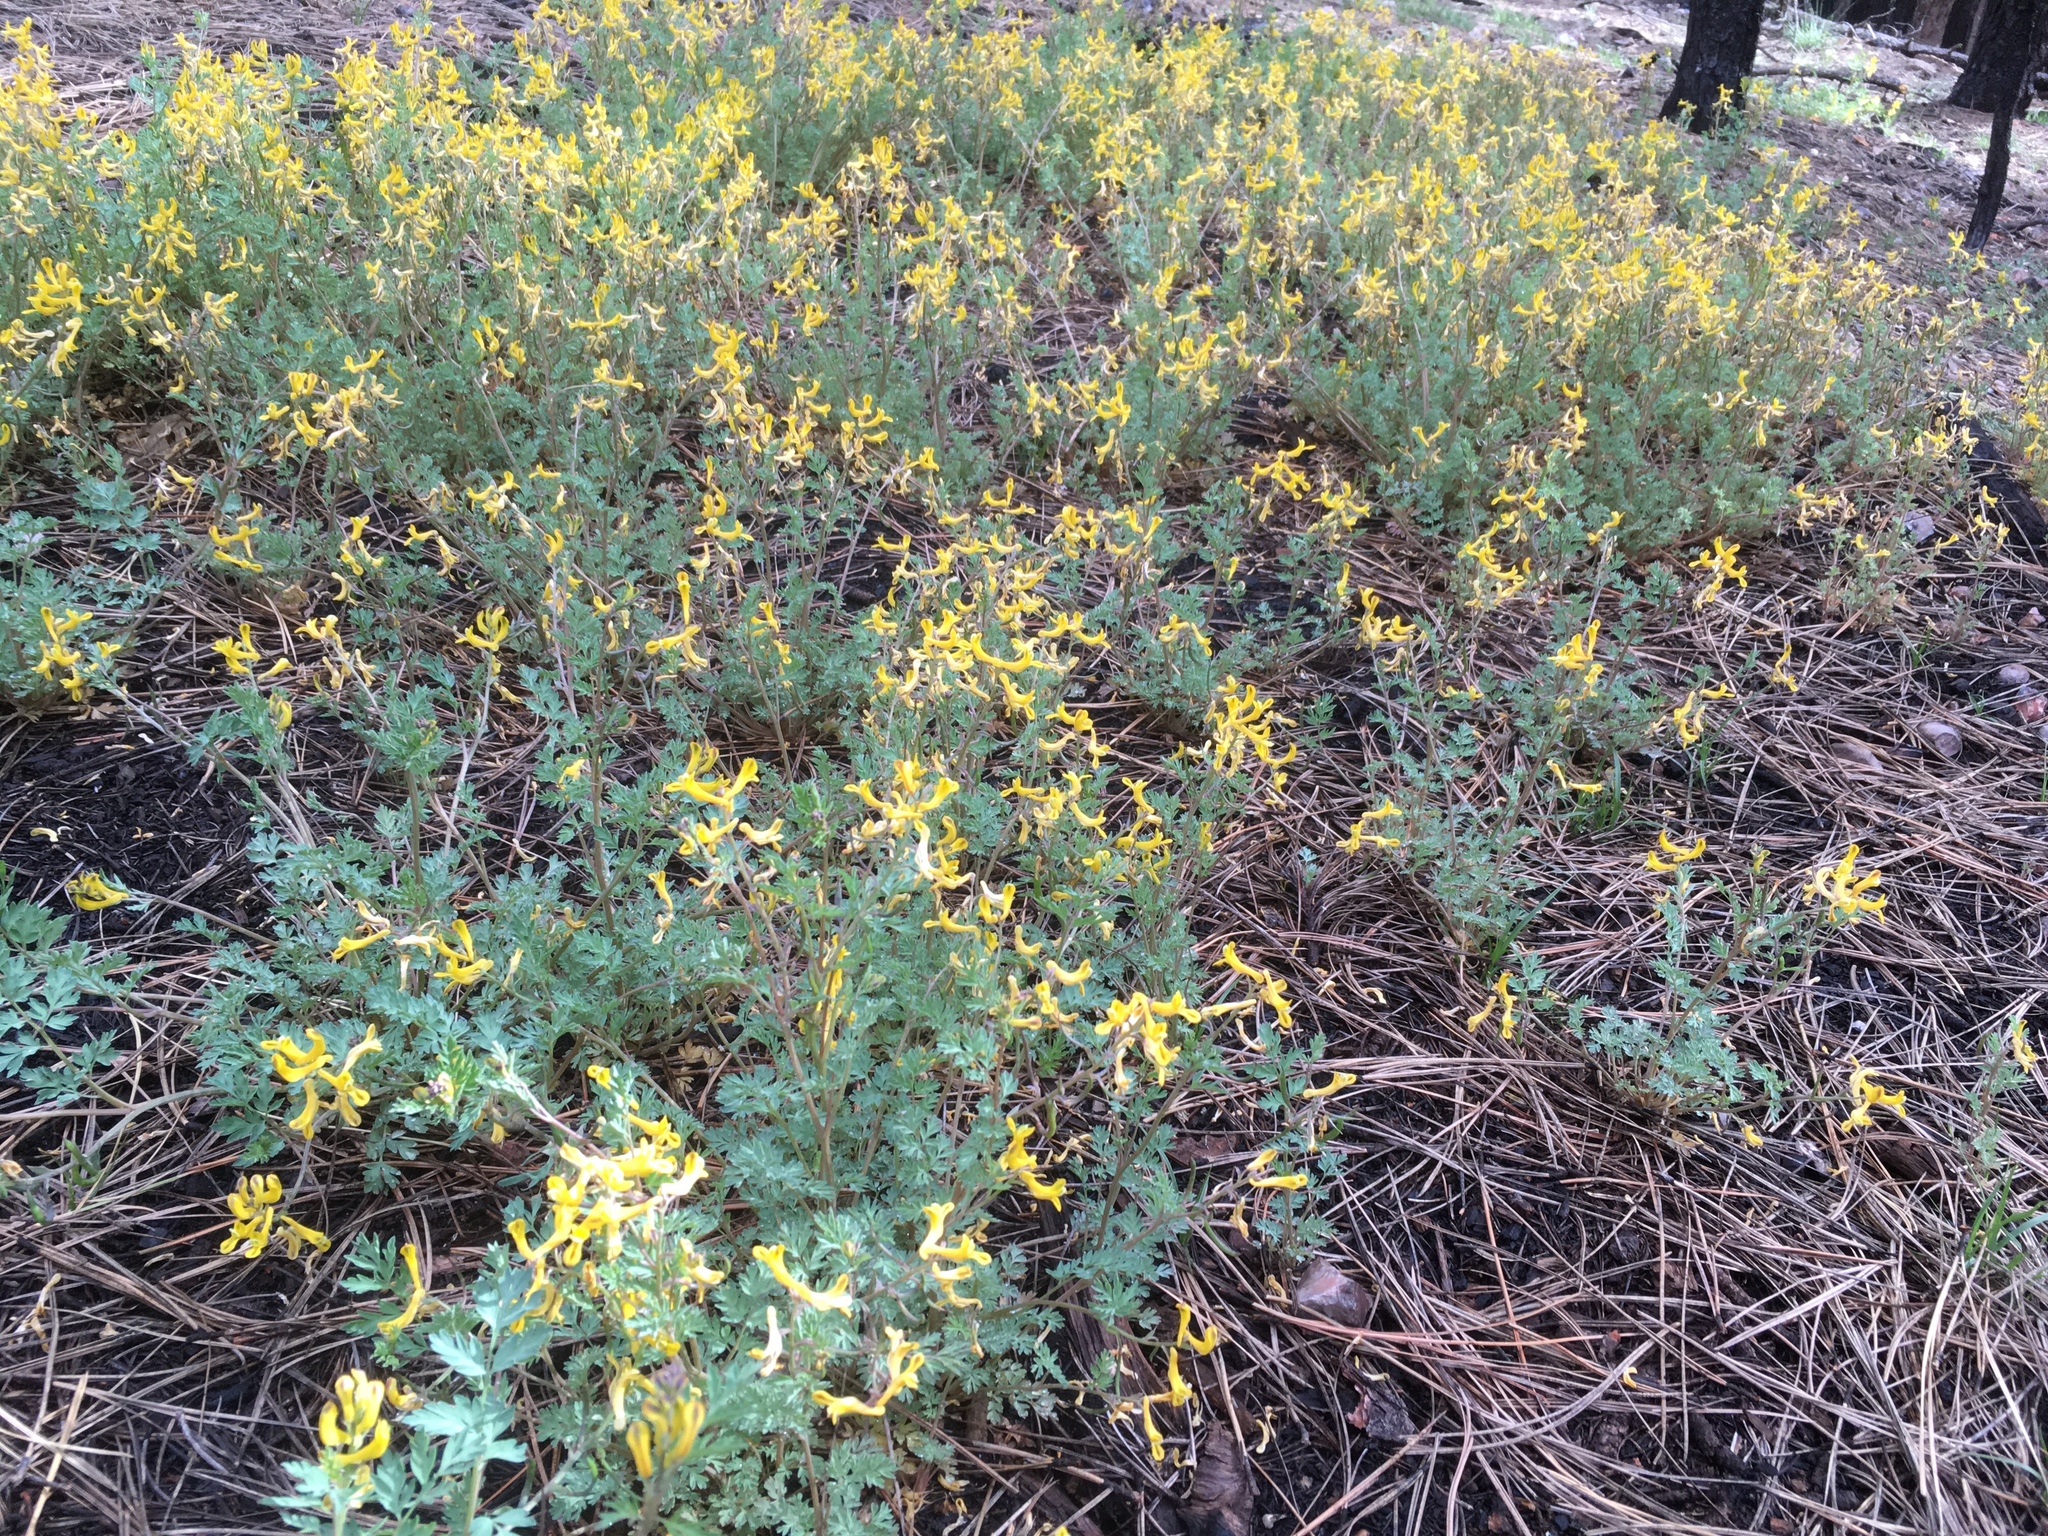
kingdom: Plantae
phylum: Tracheophyta
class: Magnoliopsida
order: Ranunculales
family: Papaveraceae
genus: Corydalis
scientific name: Corydalis aurea
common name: Golden corydalis
